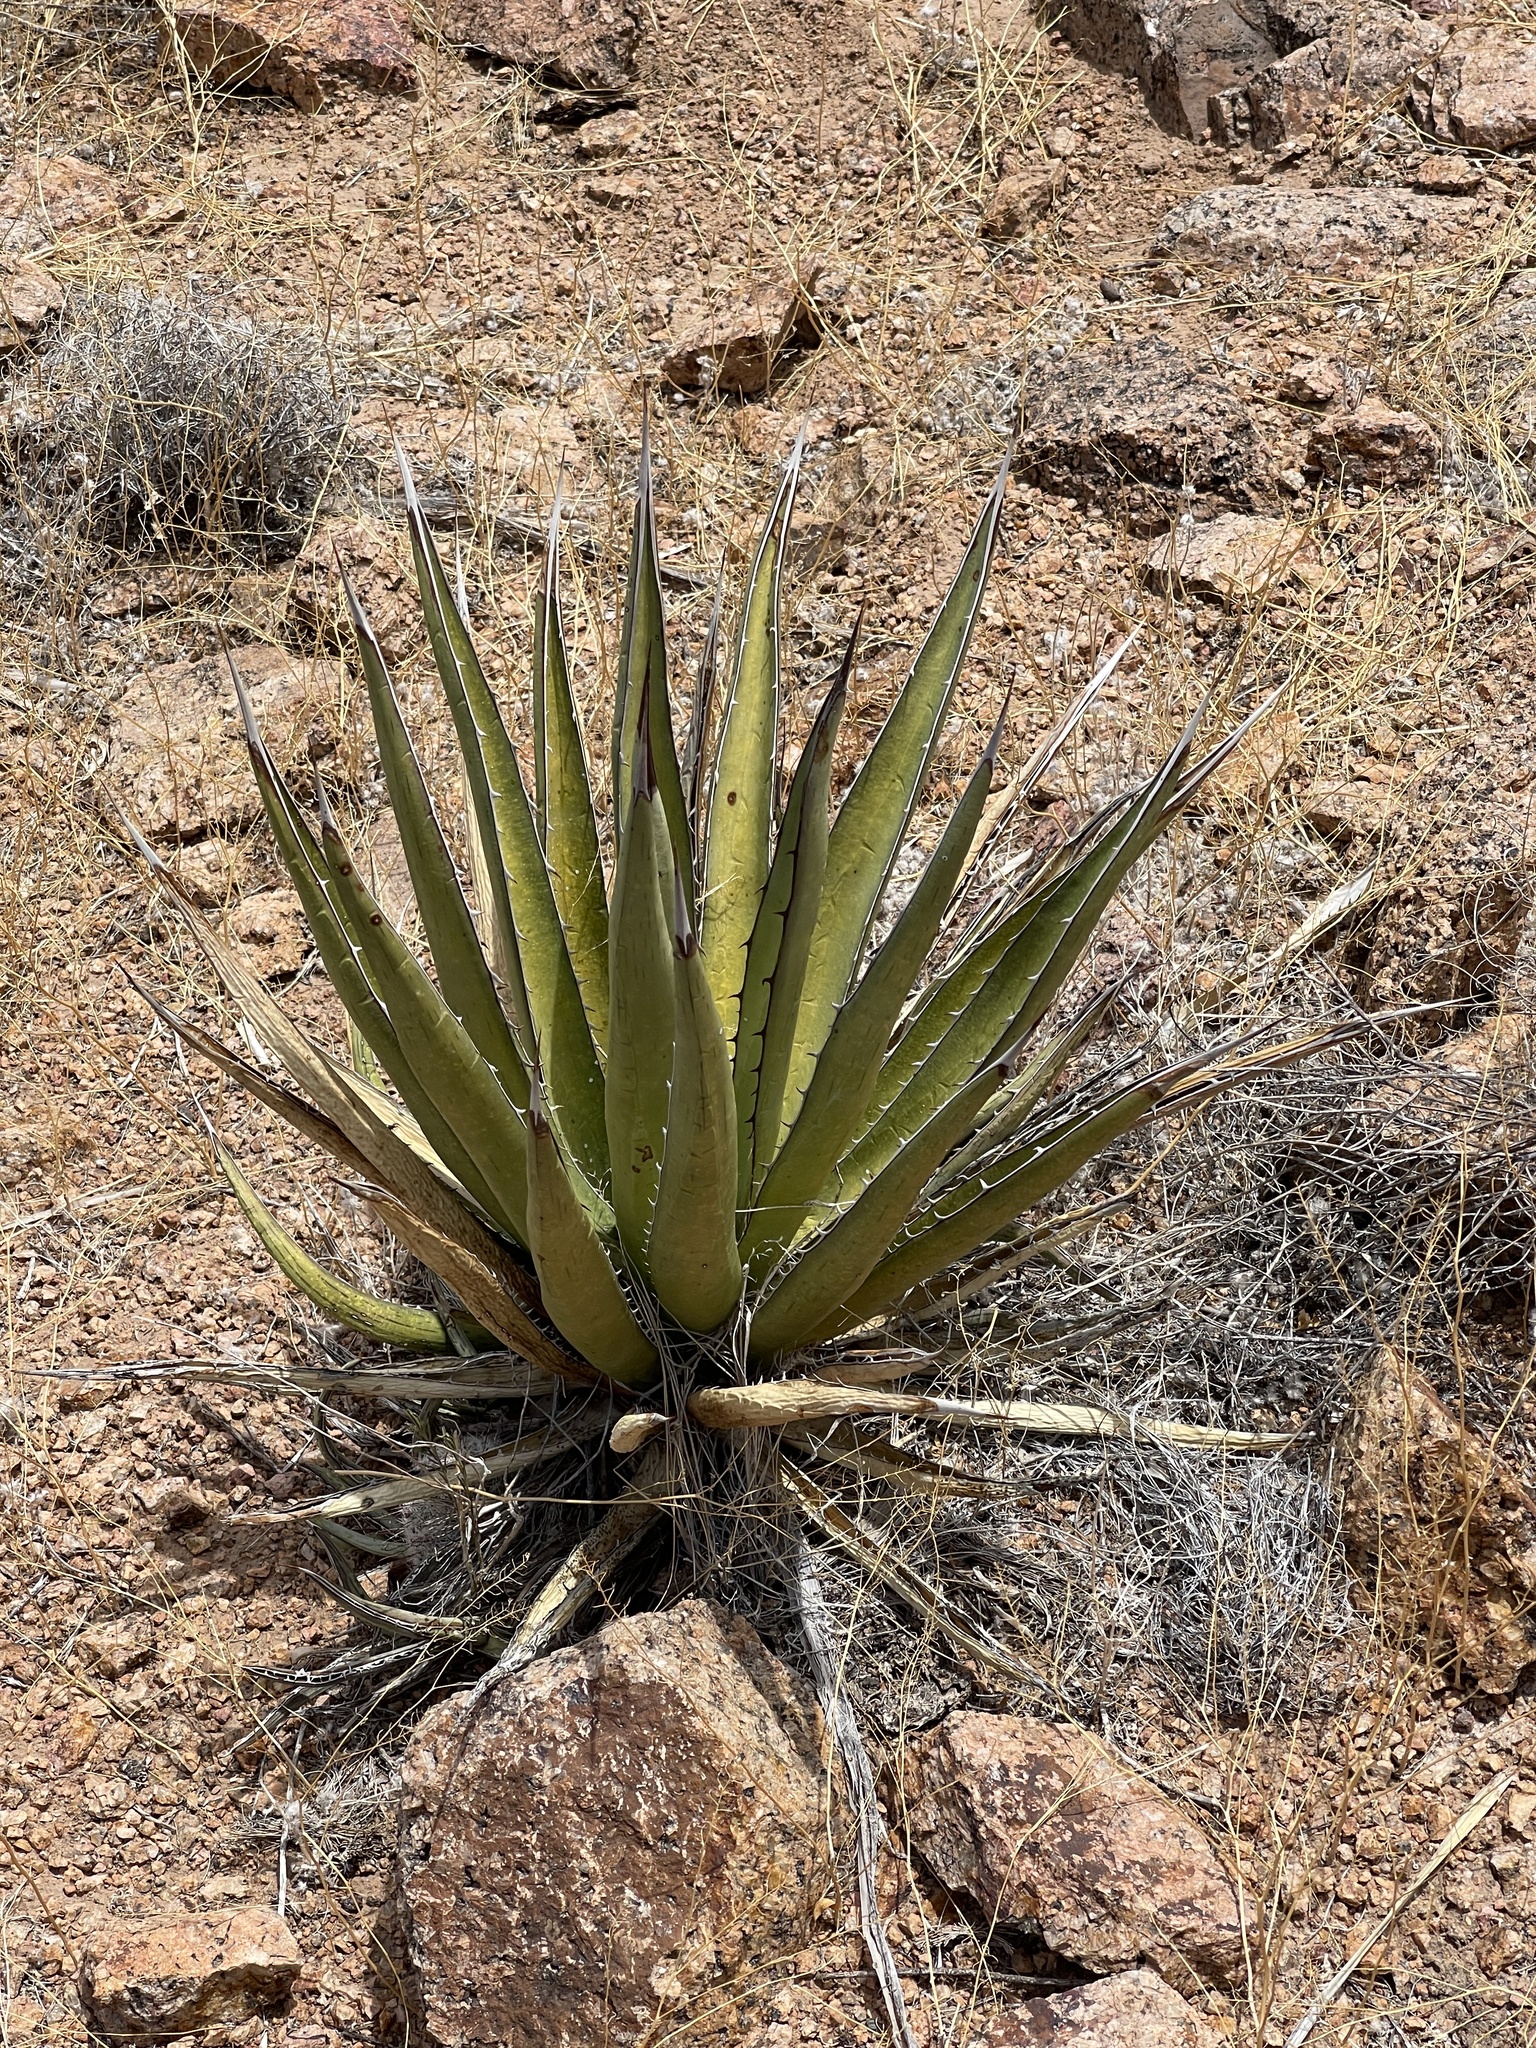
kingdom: Plantae
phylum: Tracheophyta
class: Liliopsida
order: Asparagales
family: Asparagaceae
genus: Agave
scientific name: Agave lechuguilla
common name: Lecheguilla agave
